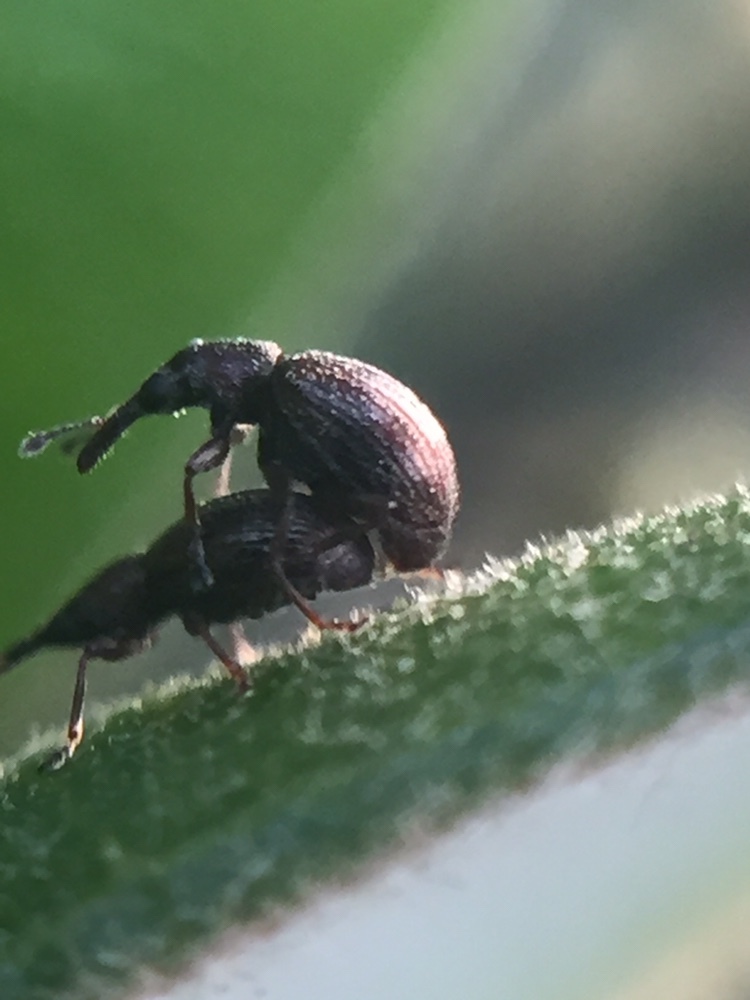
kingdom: Animalia
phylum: Arthropoda
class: Insecta
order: Coleoptera
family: Brentidae
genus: Neocyba
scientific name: Neocyba metrosideros
